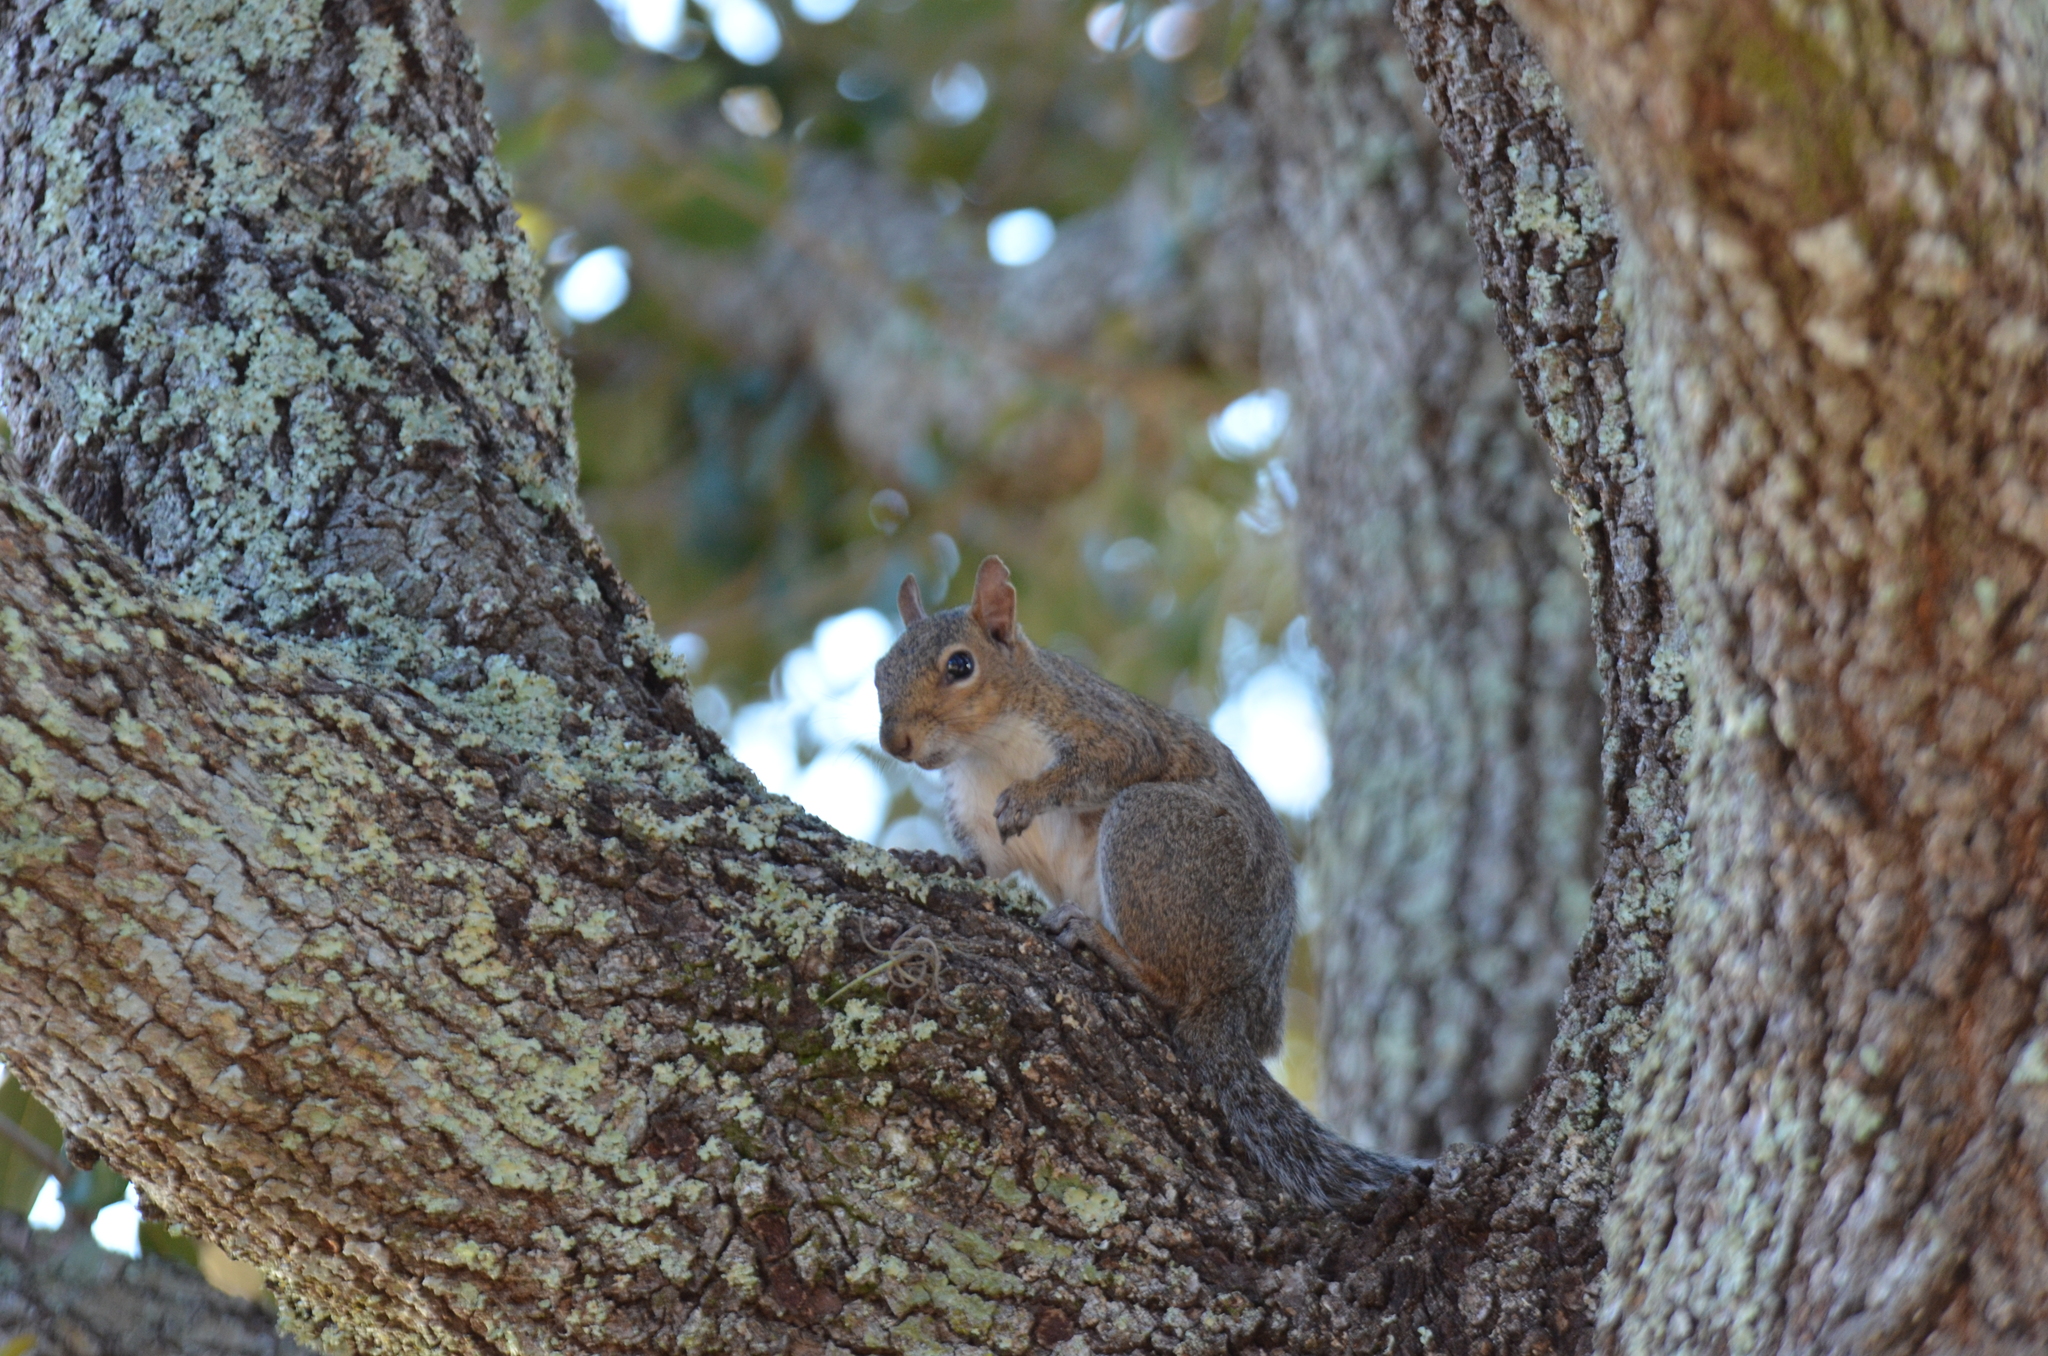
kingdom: Animalia
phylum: Chordata
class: Mammalia
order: Rodentia
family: Sciuridae
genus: Sciurus
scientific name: Sciurus carolinensis
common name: Eastern gray squirrel
